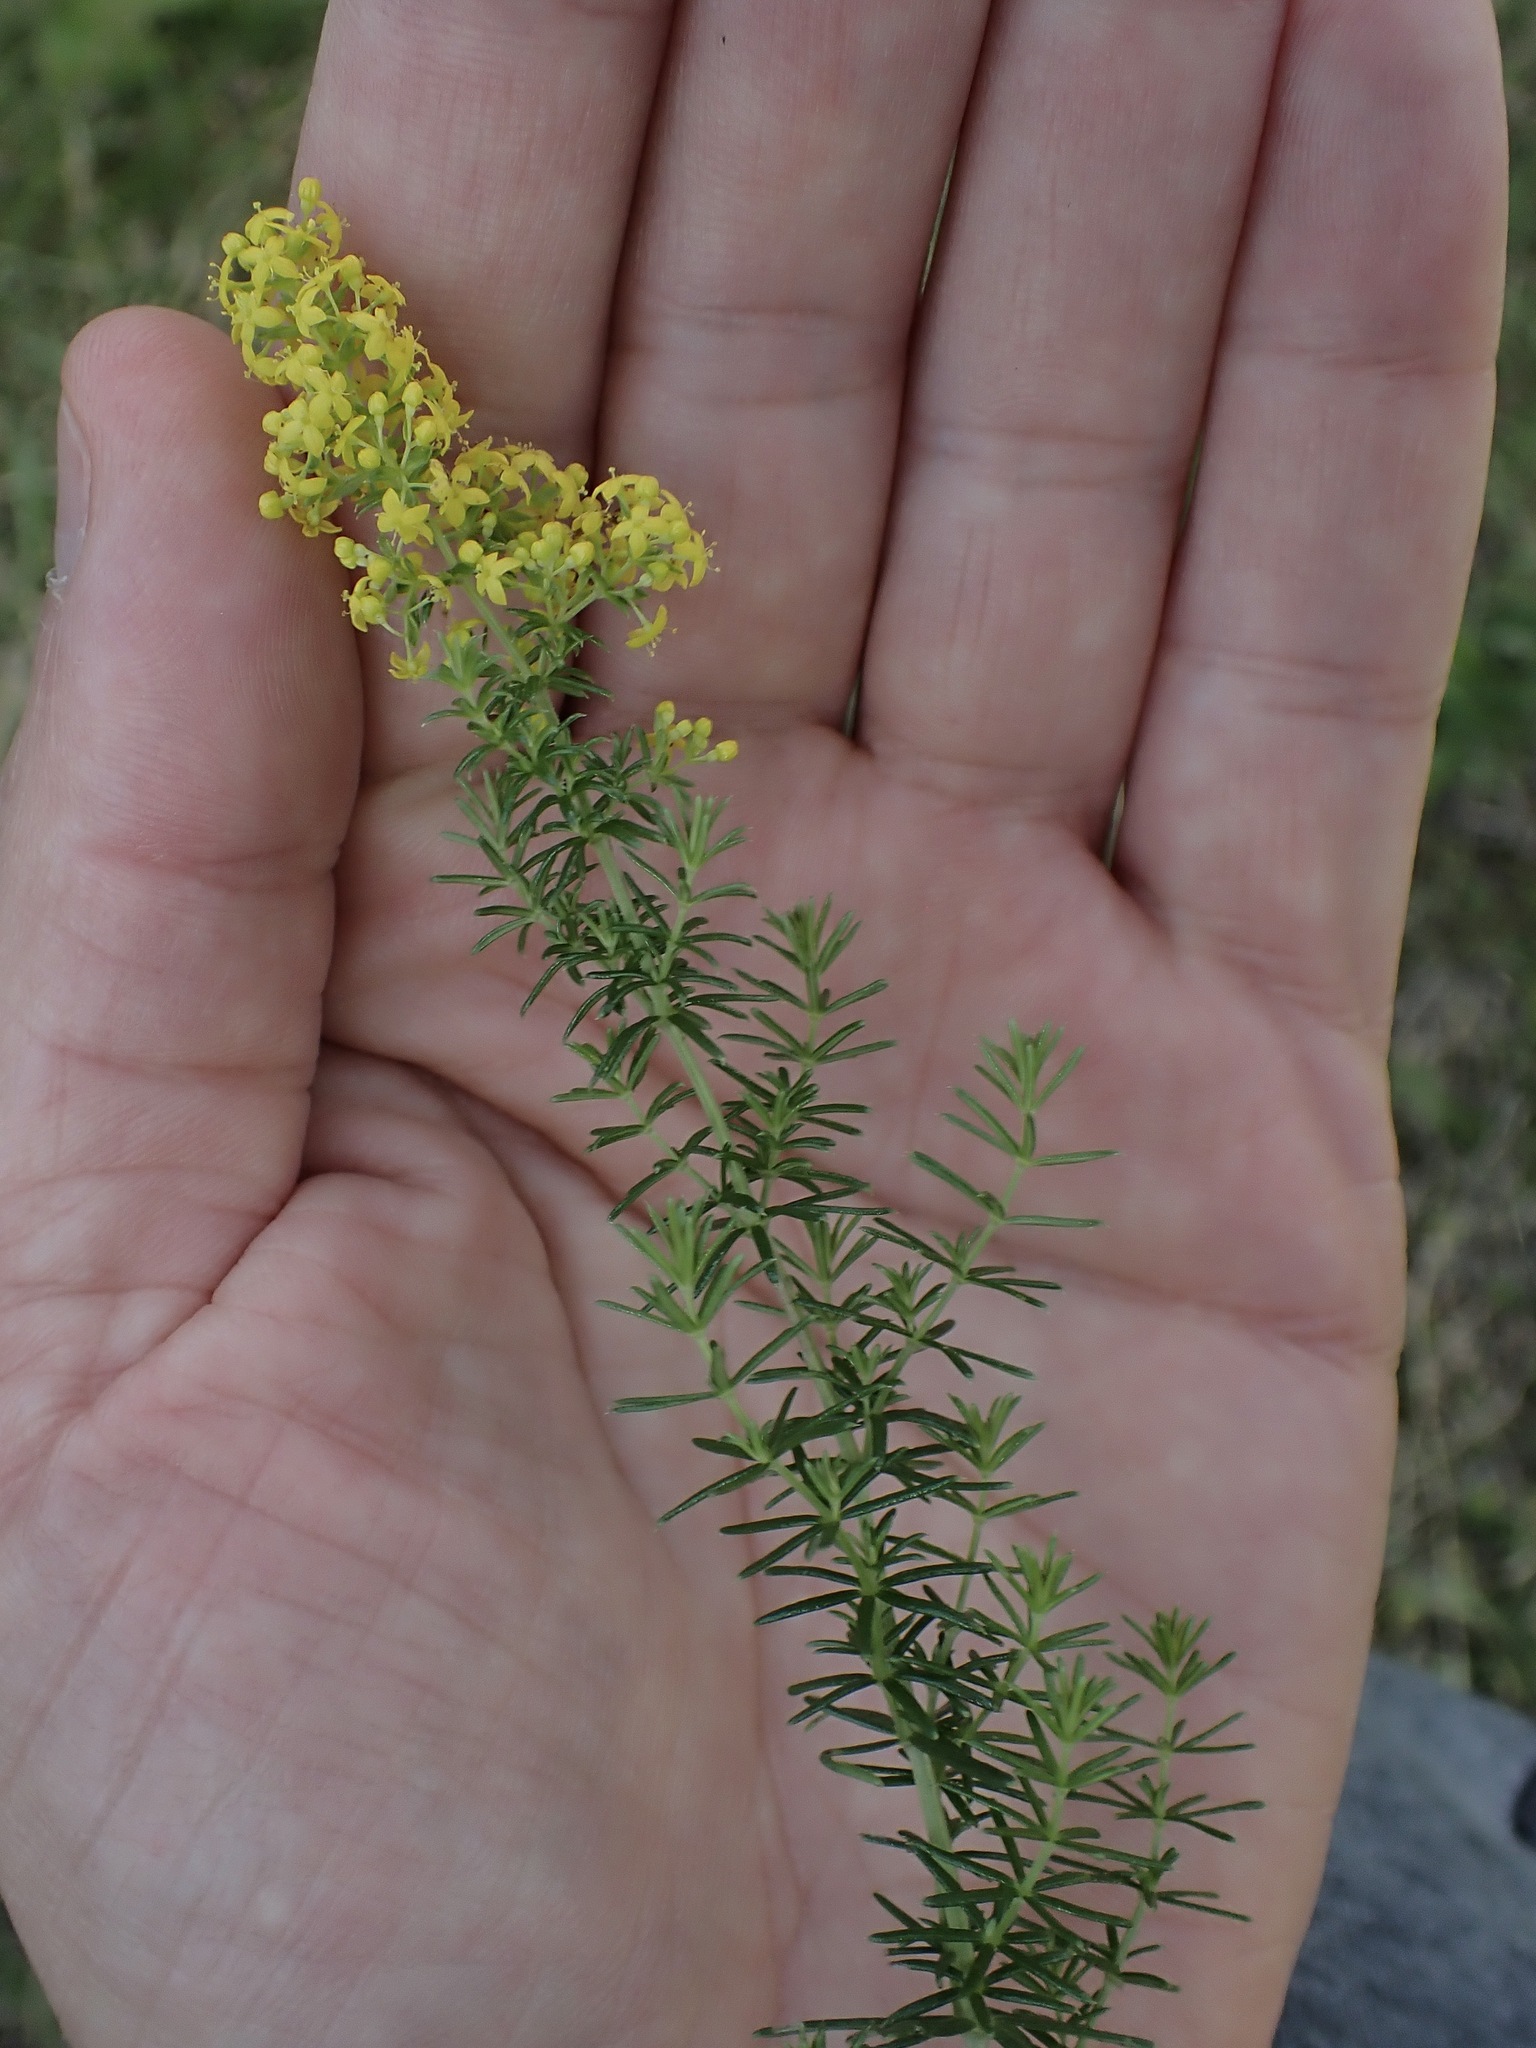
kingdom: Plantae
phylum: Tracheophyta
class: Magnoliopsida
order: Gentianales
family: Rubiaceae
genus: Galium
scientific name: Galium verum
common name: Lady's bedstraw
